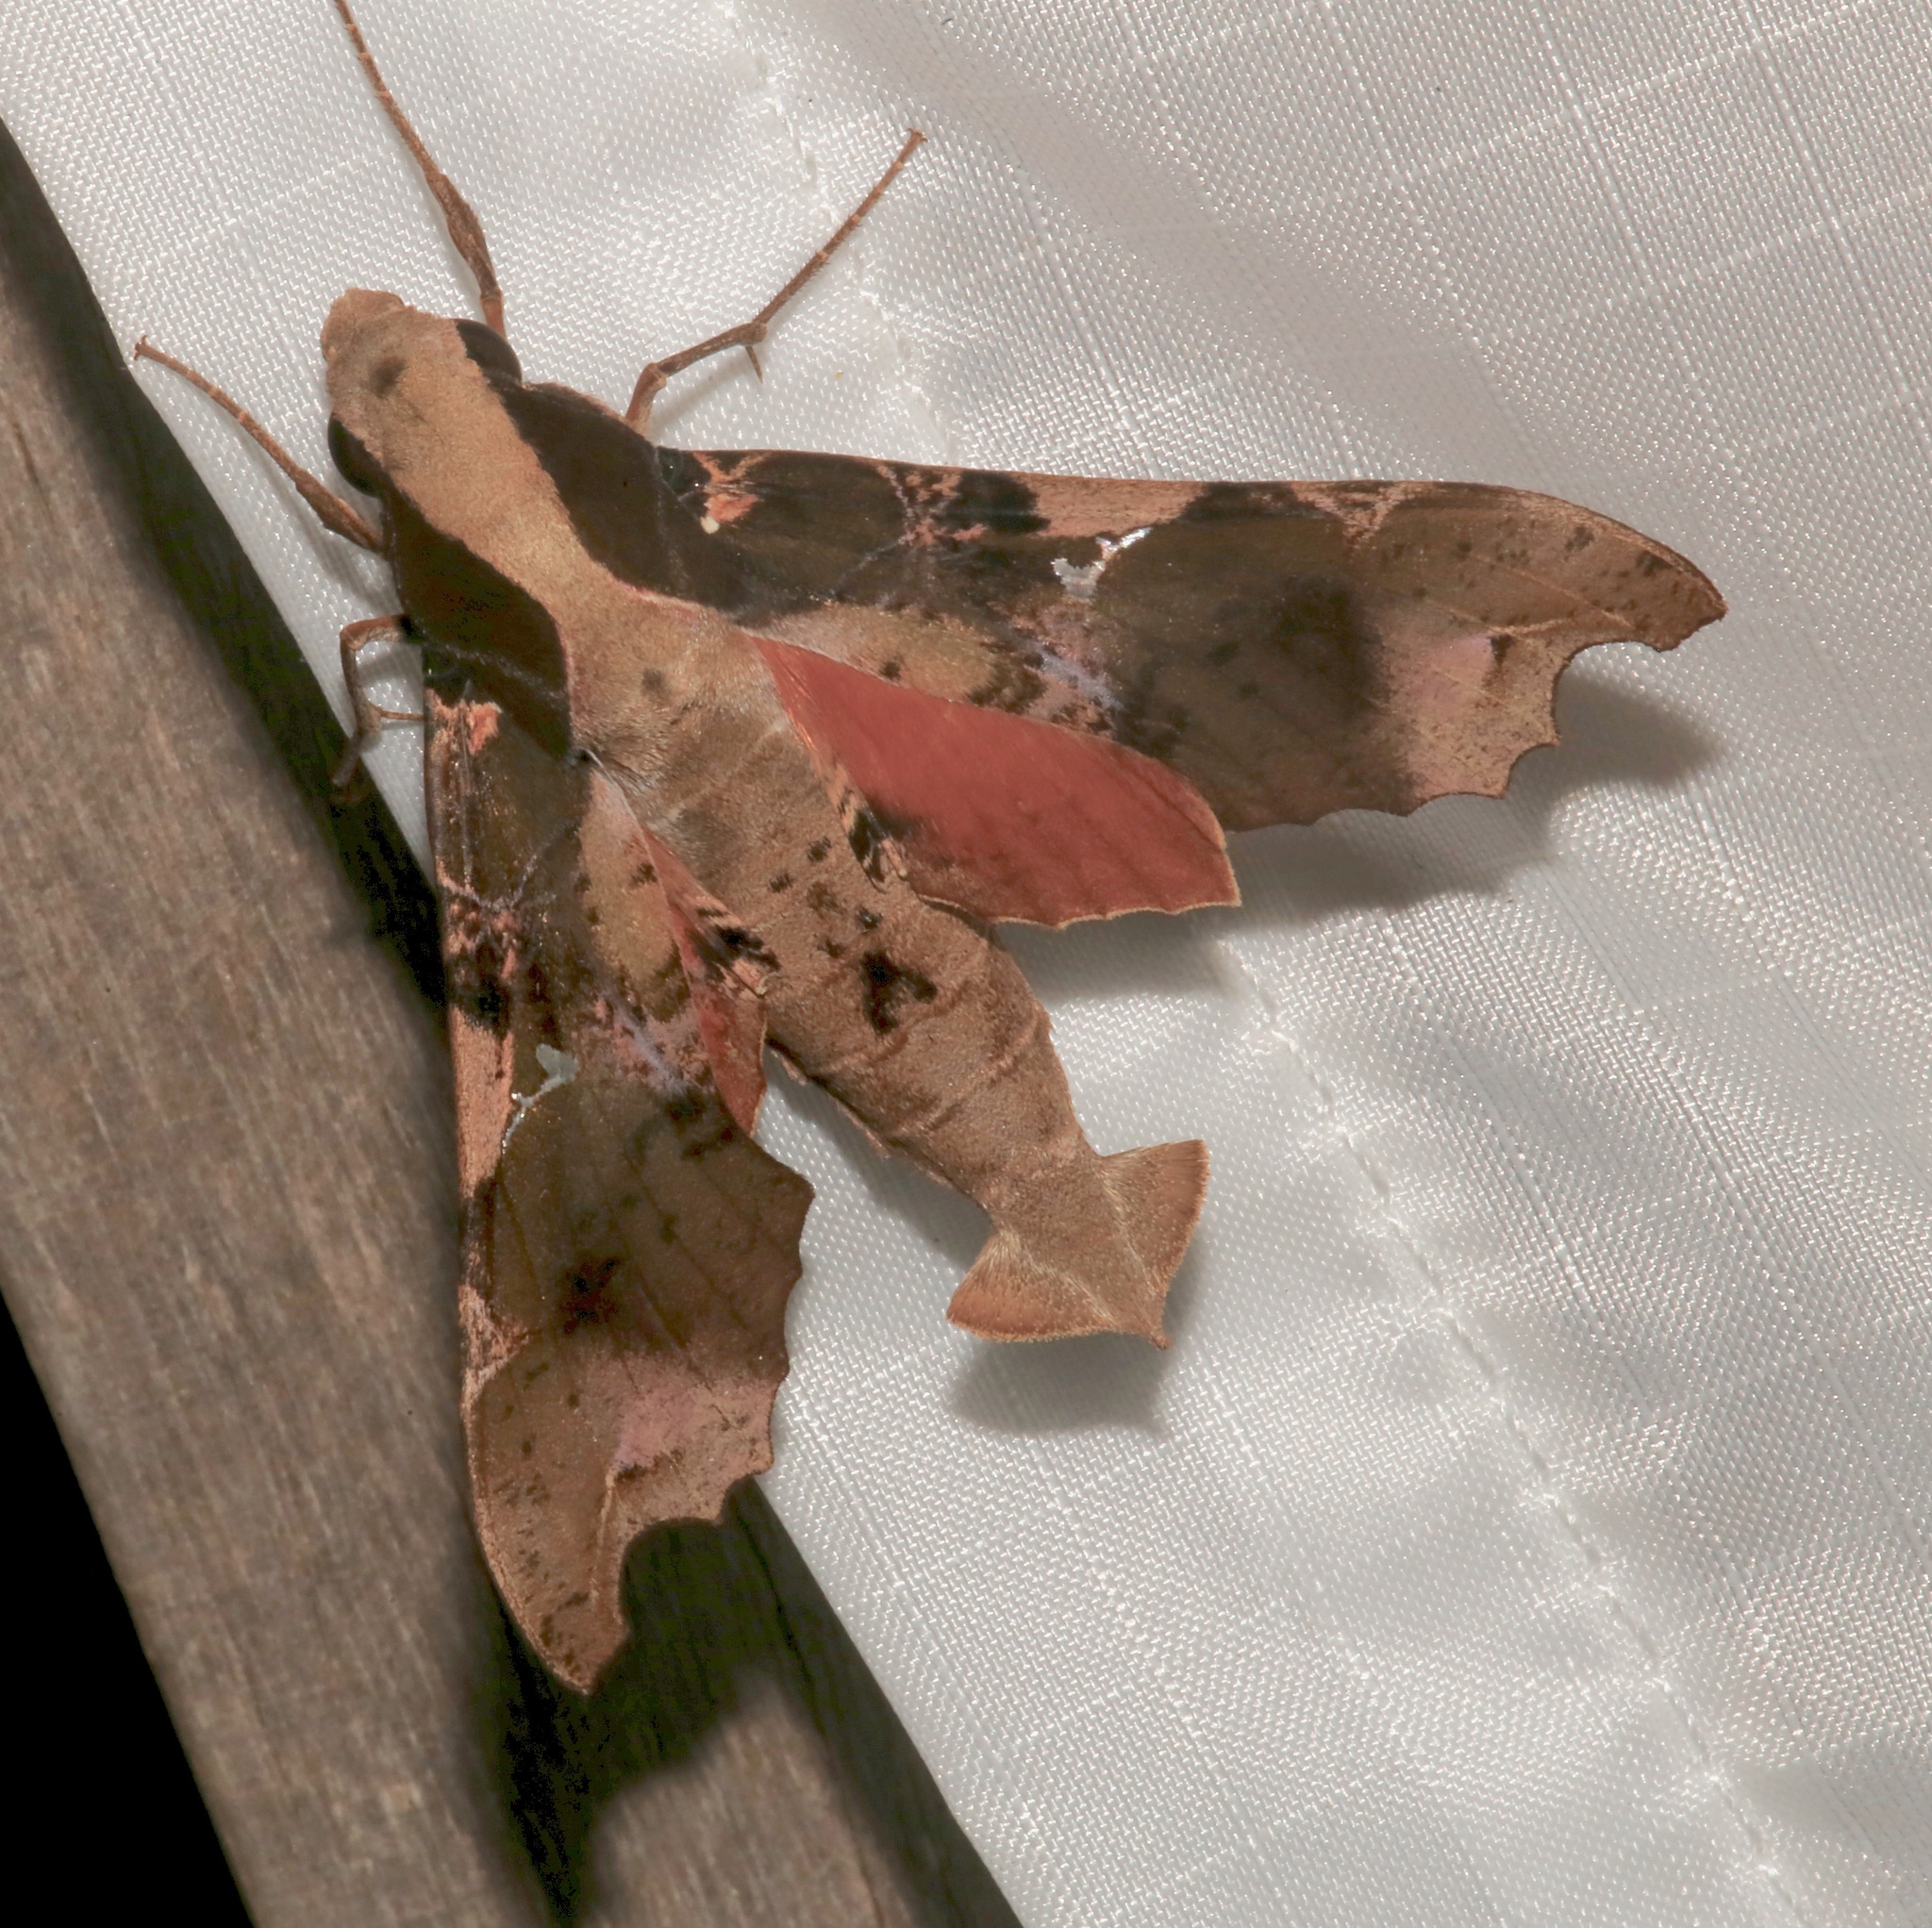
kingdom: Animalia
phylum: Arthropoda
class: Insecta
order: Lepidoptera
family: Sphingidae
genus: Callionima
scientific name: Callionima denticulata
